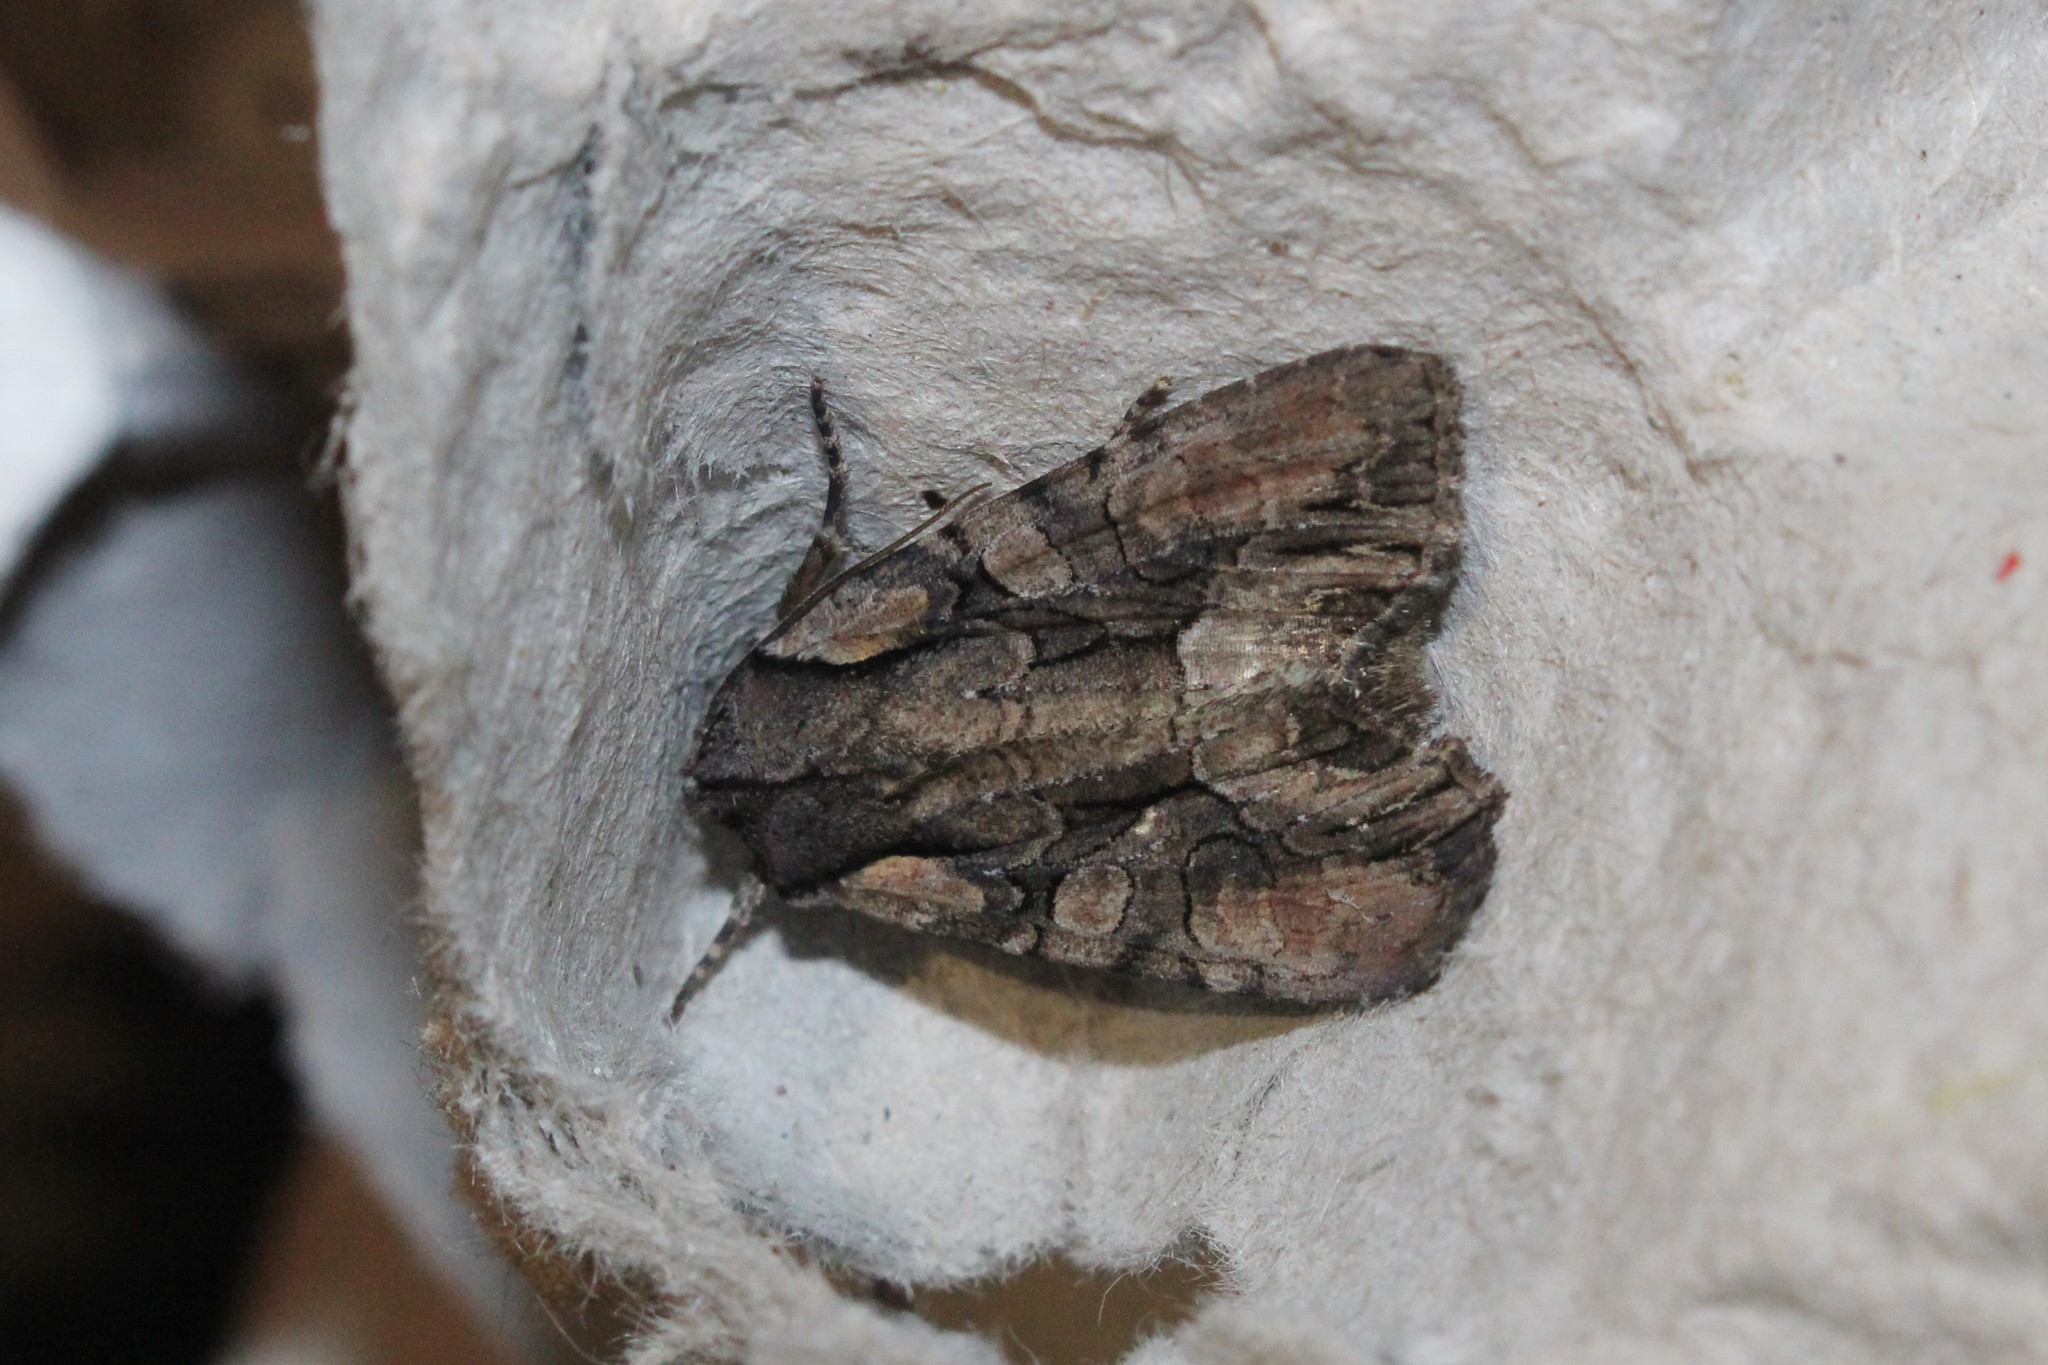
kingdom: Animalia
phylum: Arthropoda
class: Insecta
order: Lepidoptera
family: Noctuidae
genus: Lacanobia
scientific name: Lacanobia subjuncta
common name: Speckled cutworm moth
